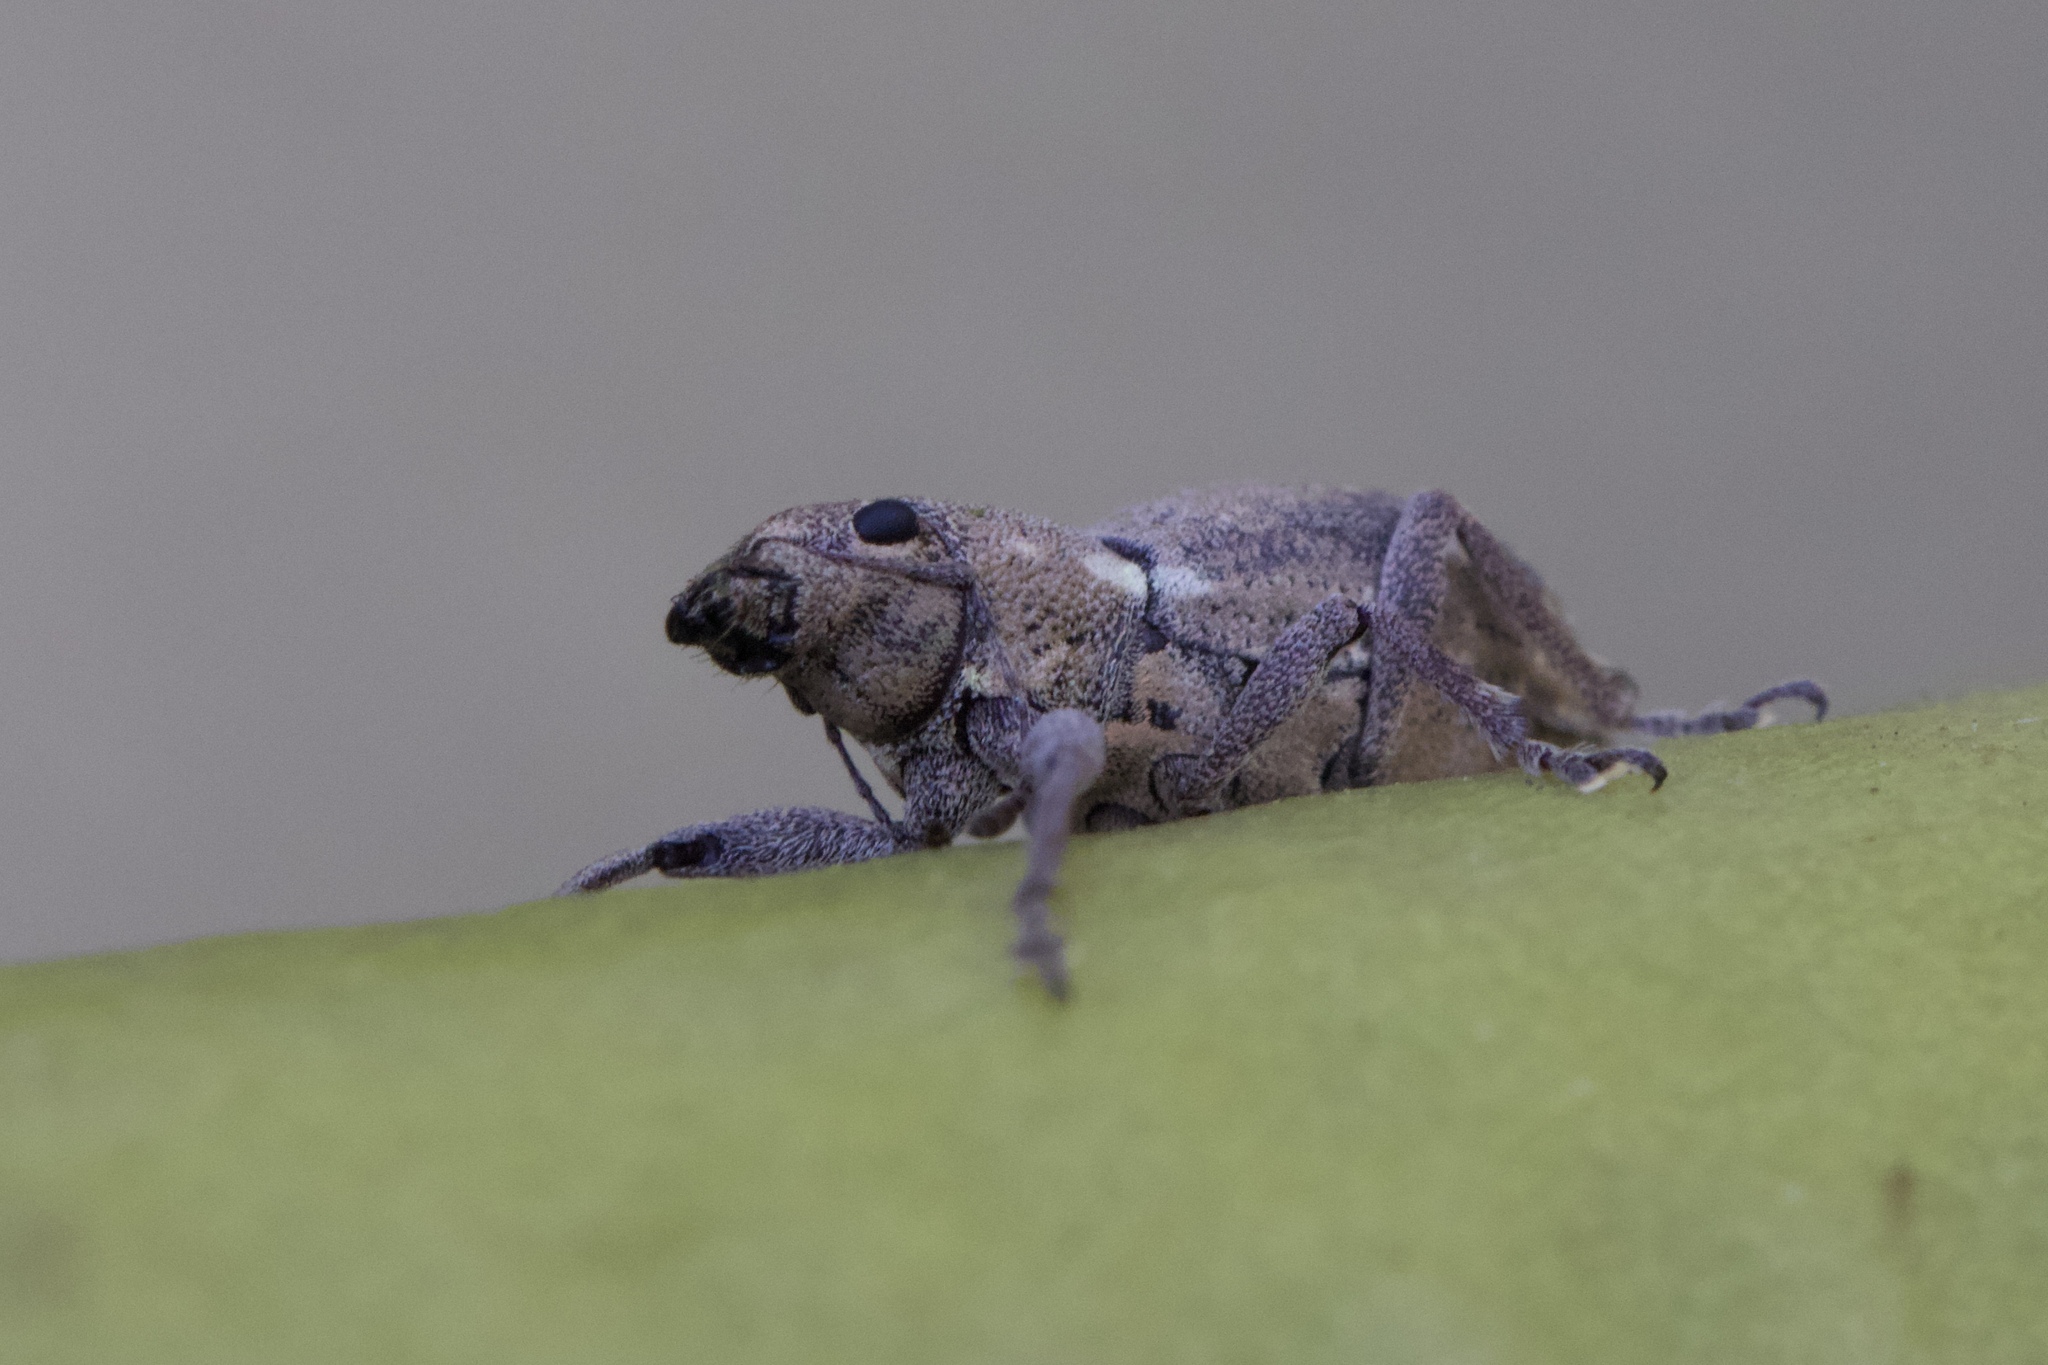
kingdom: Animalia
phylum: Arthropoda
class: Insecta
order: Coleoptera
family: Curculionidae
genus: Naupactus
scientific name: Naupactus cervinus
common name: Fuller rose beetle
